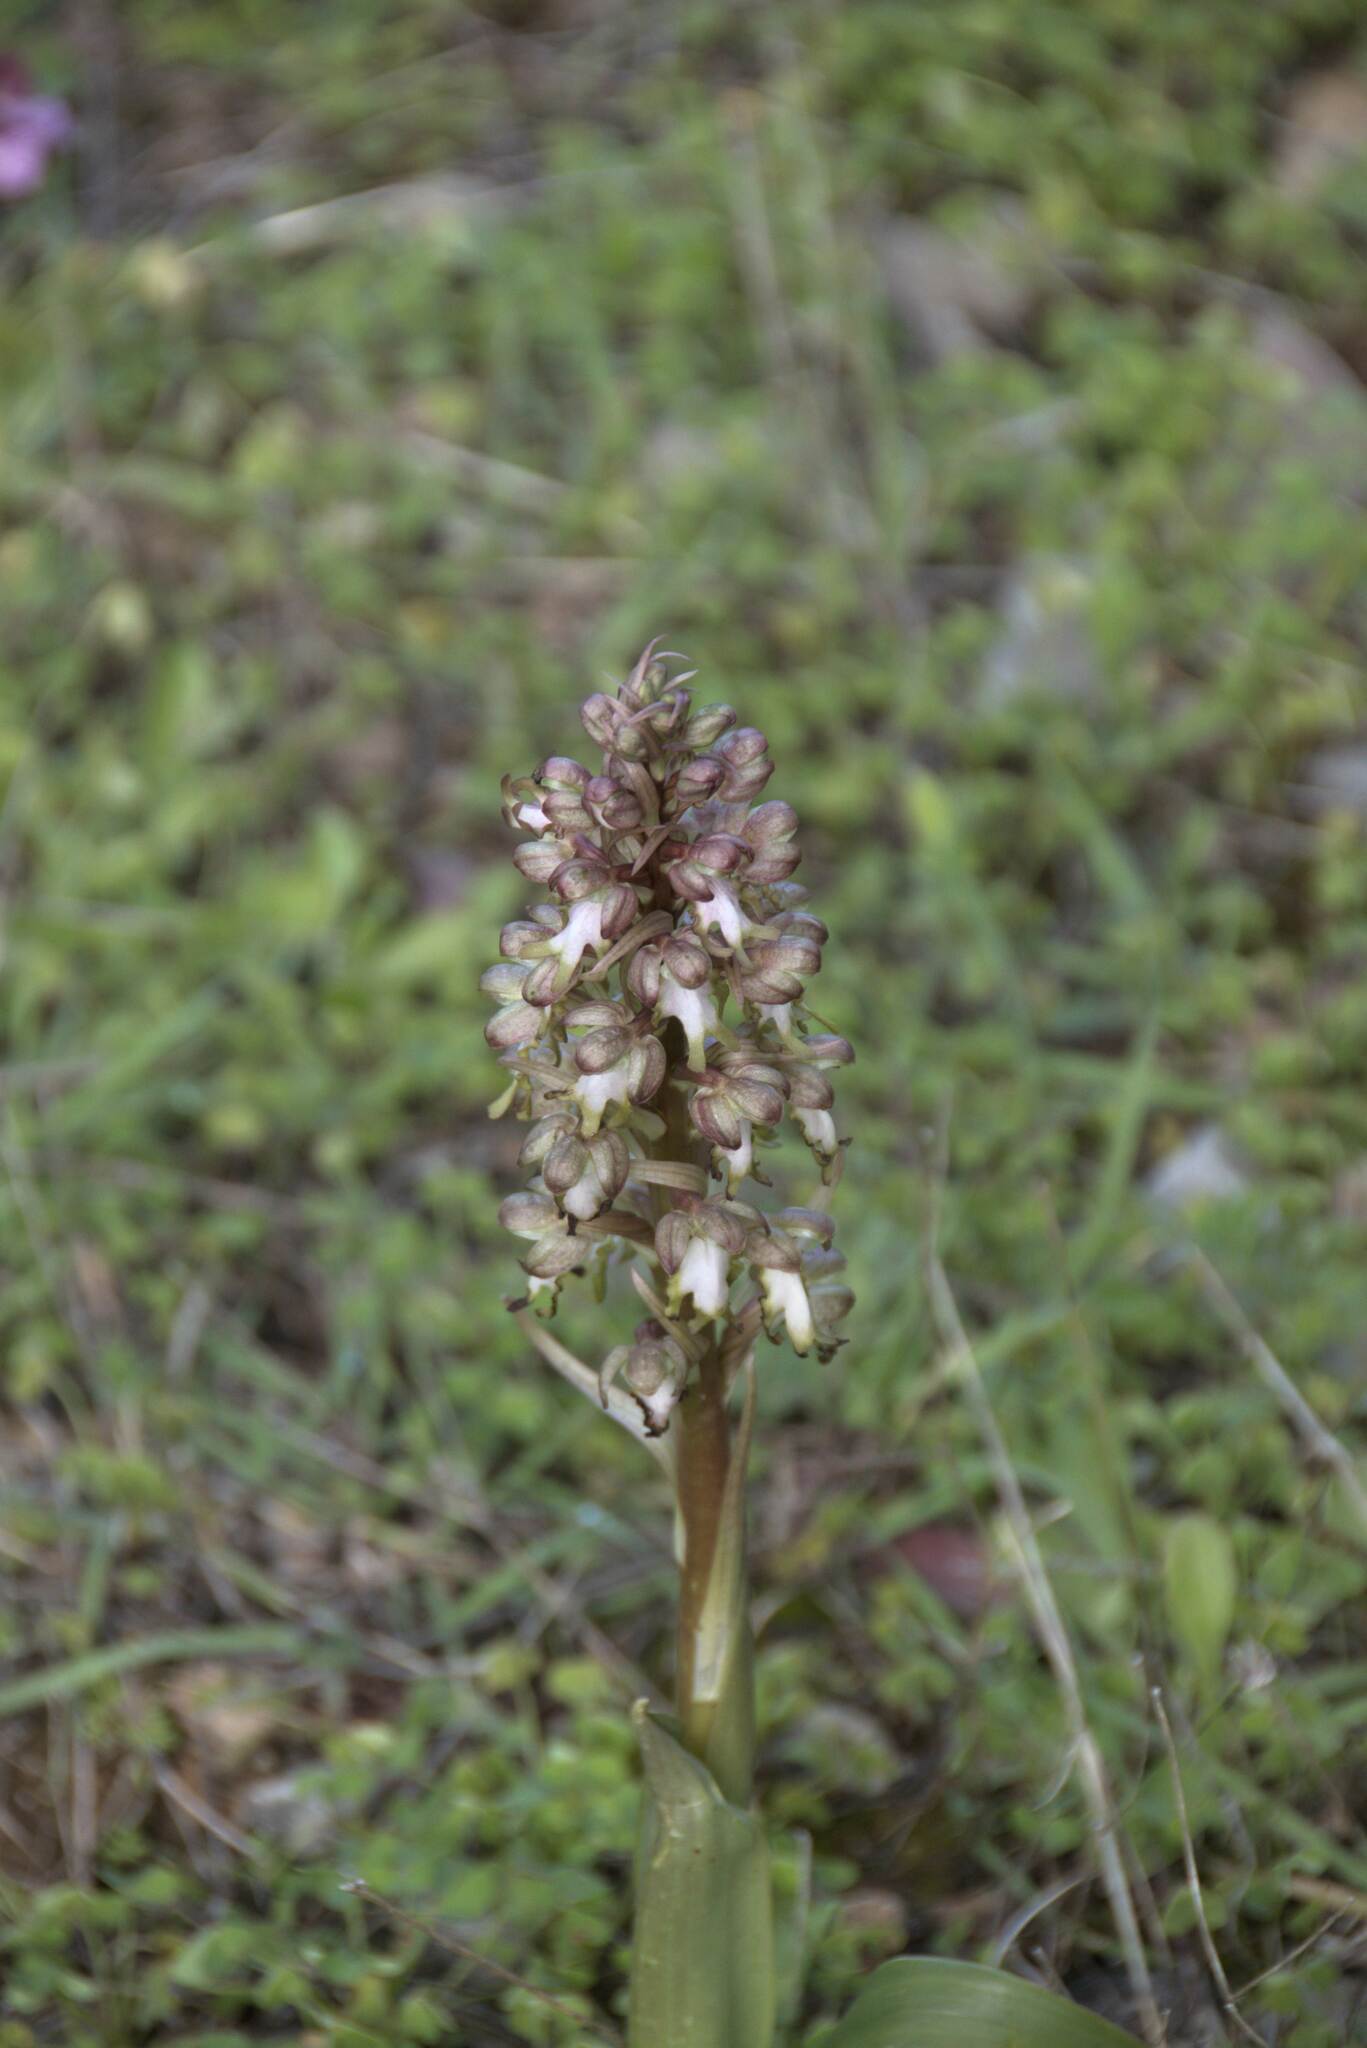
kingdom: Plantae
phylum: Tracheophyta
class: Liliopsida
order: Asparagales
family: Orchidaceae
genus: Himantoglossum
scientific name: Himantoglossum robertianum
